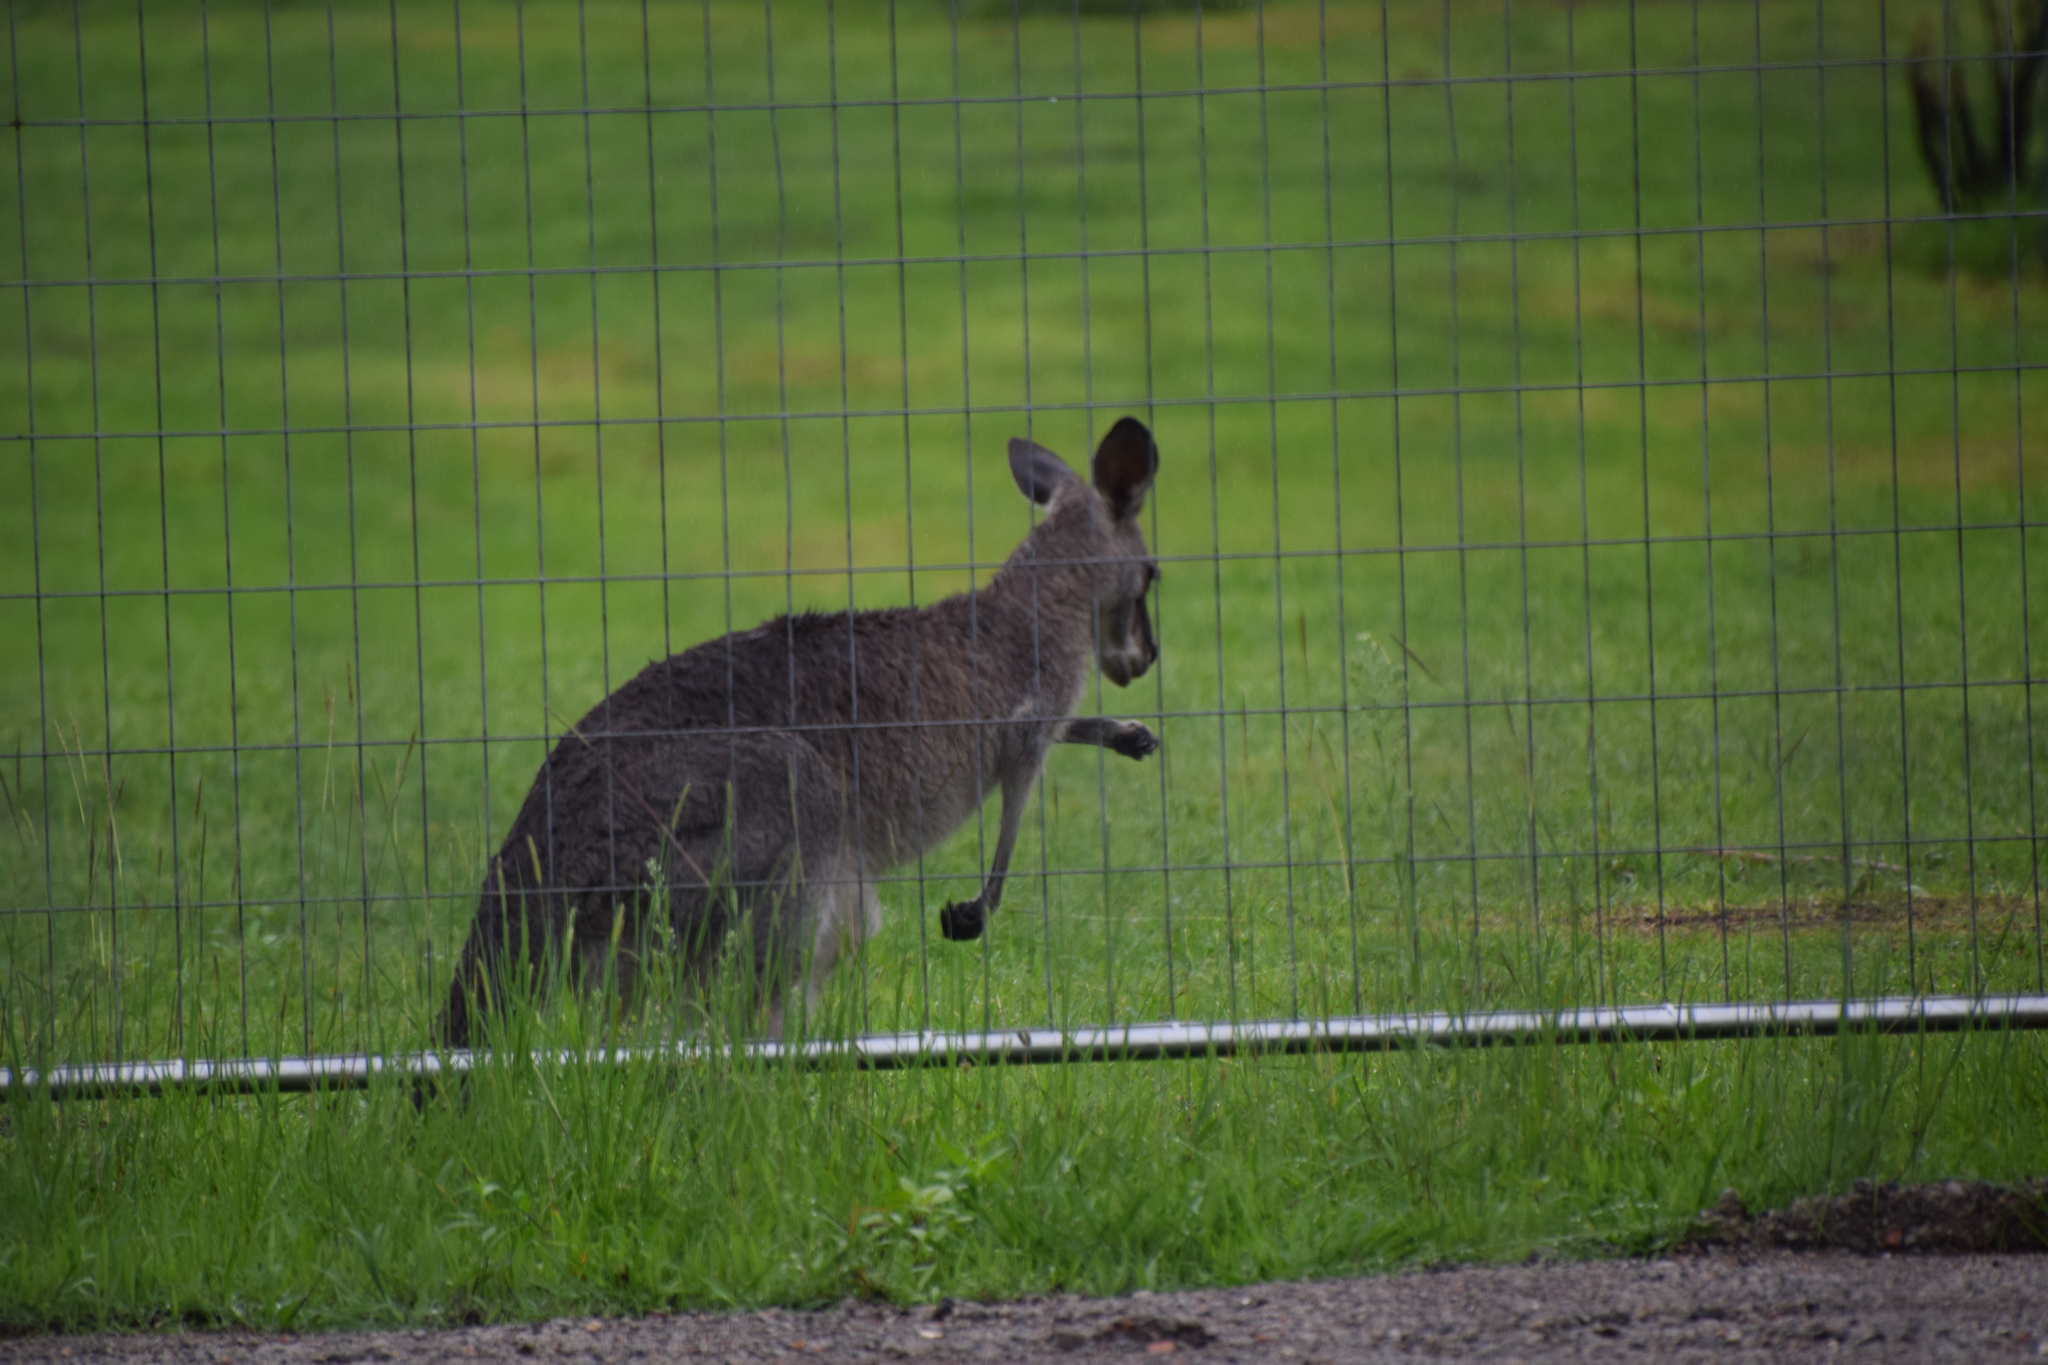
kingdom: Animalia
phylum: Chordata
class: Mammalia
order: Diprotodontia
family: Macropodidae
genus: Macropus
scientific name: Macropus giganteus
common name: Eastern grey kangaroo
